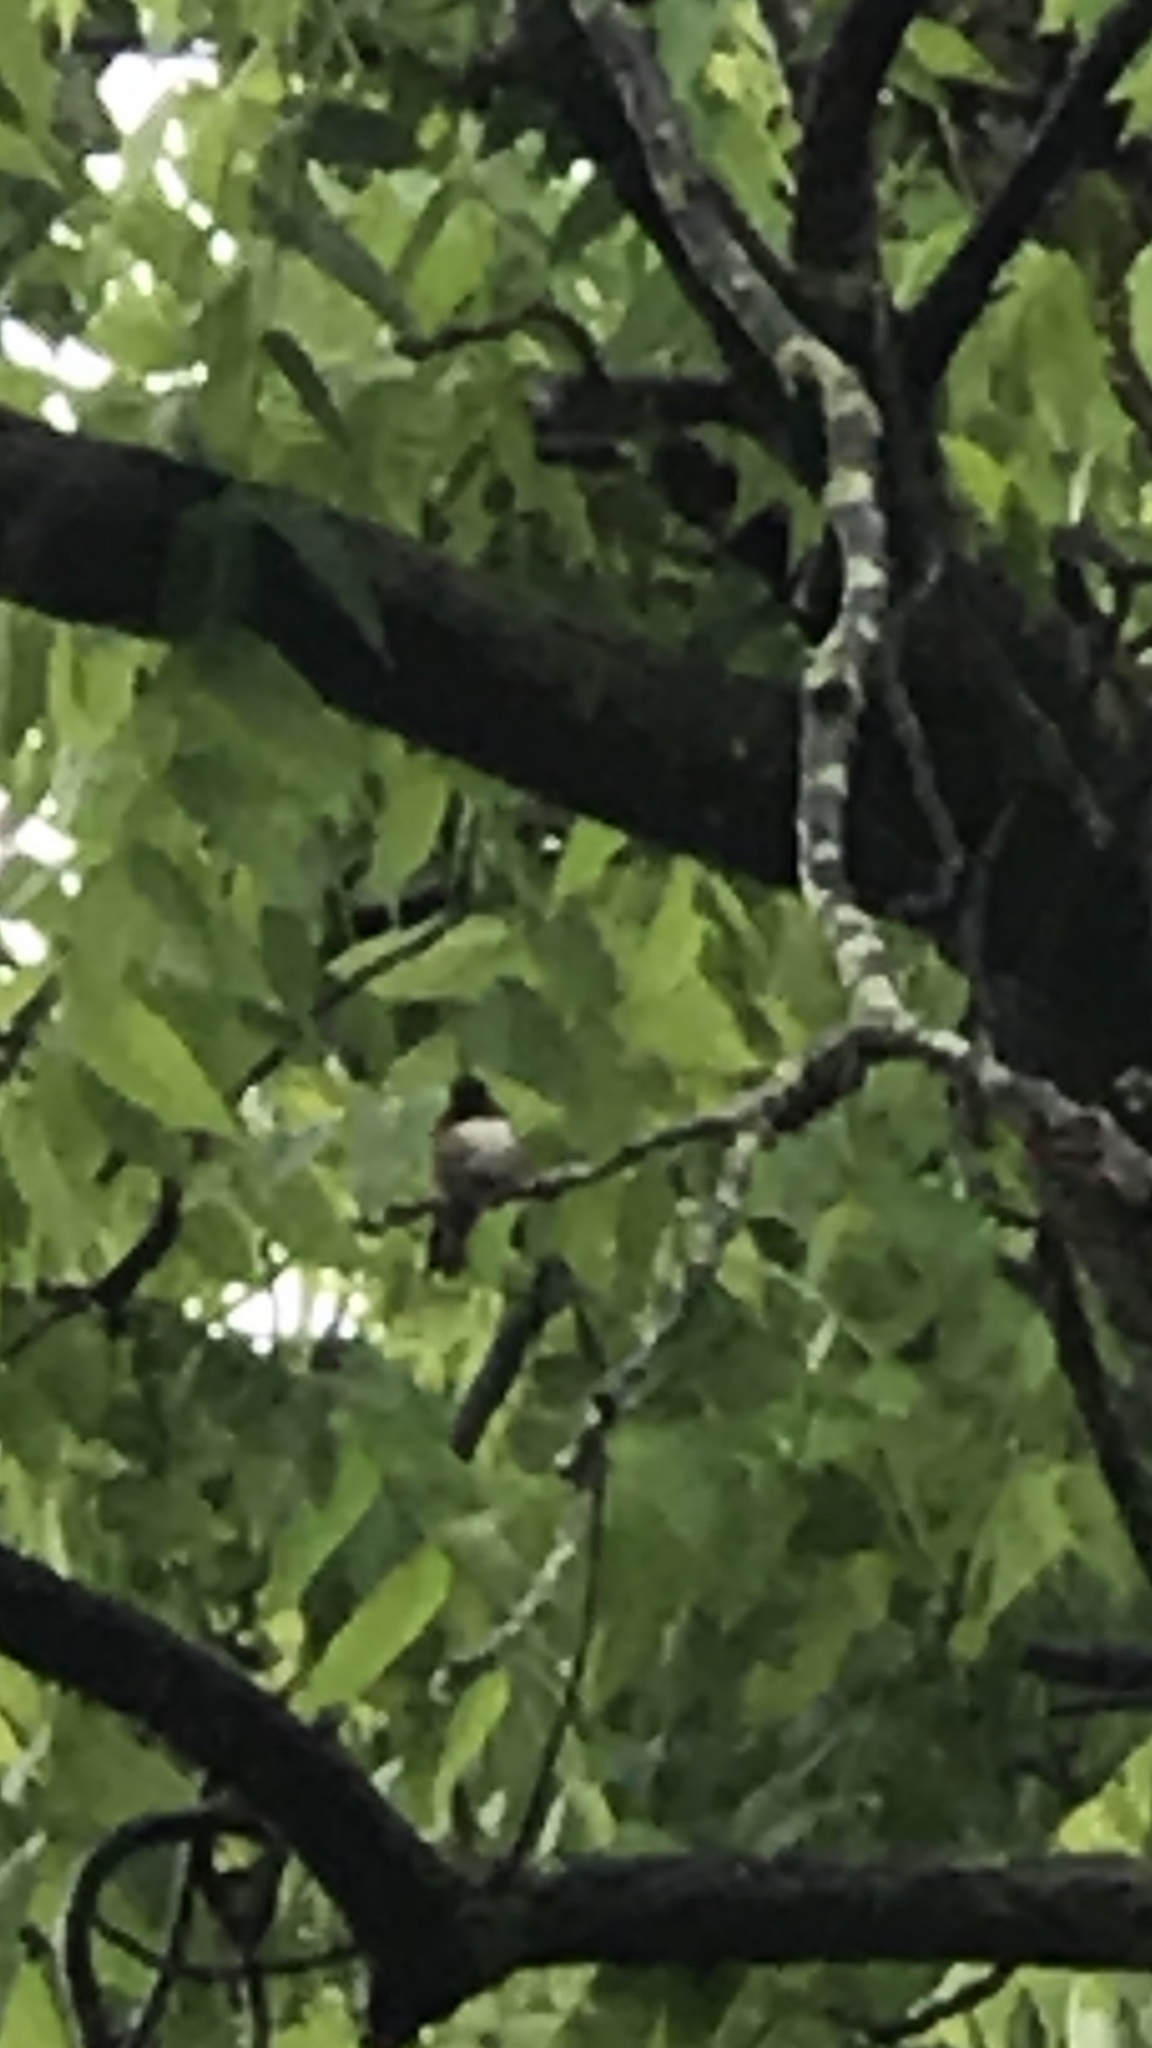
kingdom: Animalia
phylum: Chordata
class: Aves
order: Apodiformes
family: Trochilidae
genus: Archilochus
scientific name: Archilochus colubris
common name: Ruby-throated hummingbird
